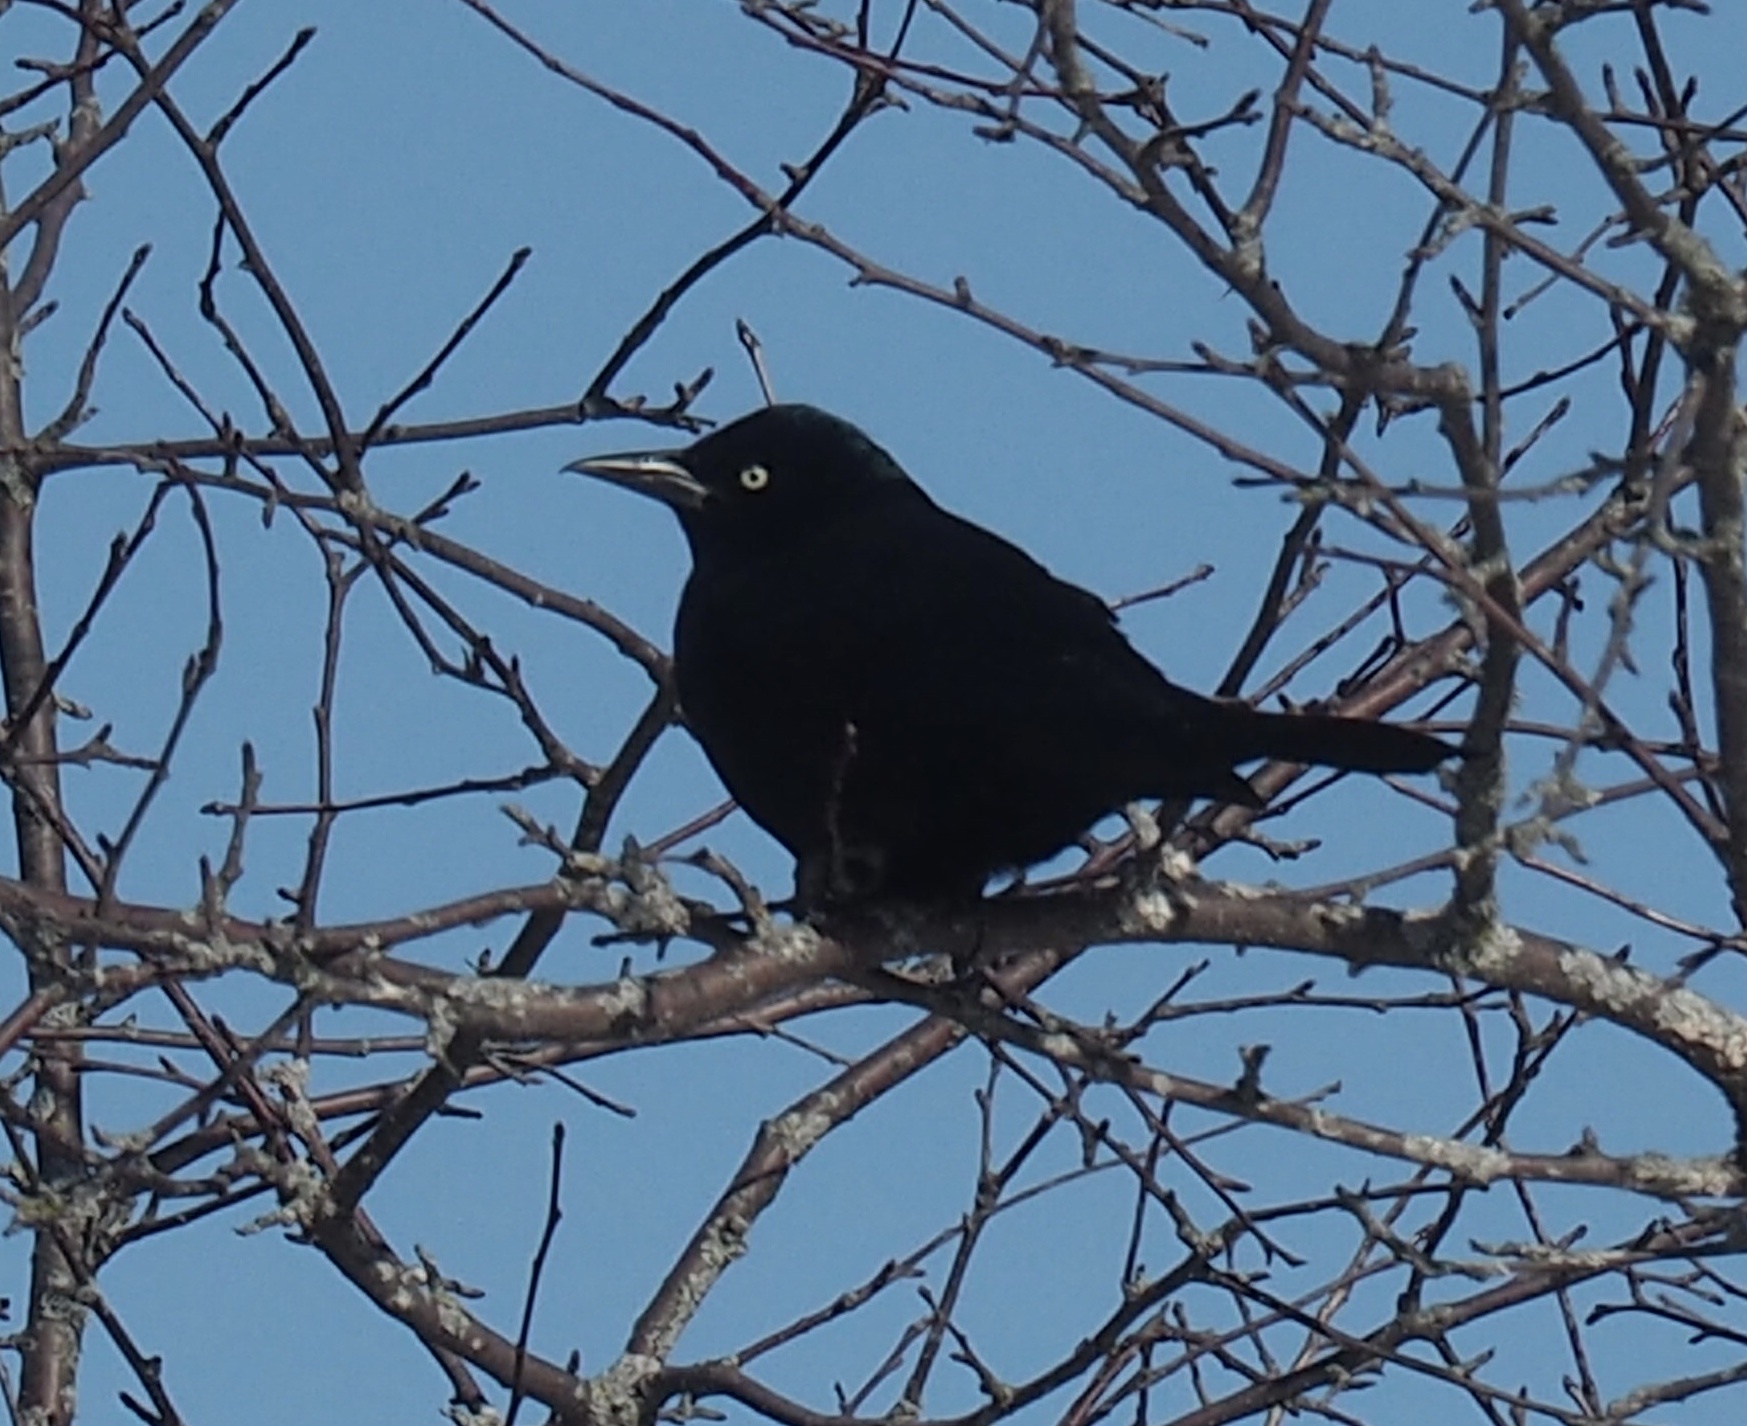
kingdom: Animalia
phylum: Chordata
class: Aves
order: Passeriformes
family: Icteridae
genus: Quiscalus
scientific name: Quiscalus quiscula
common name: Common grackle
